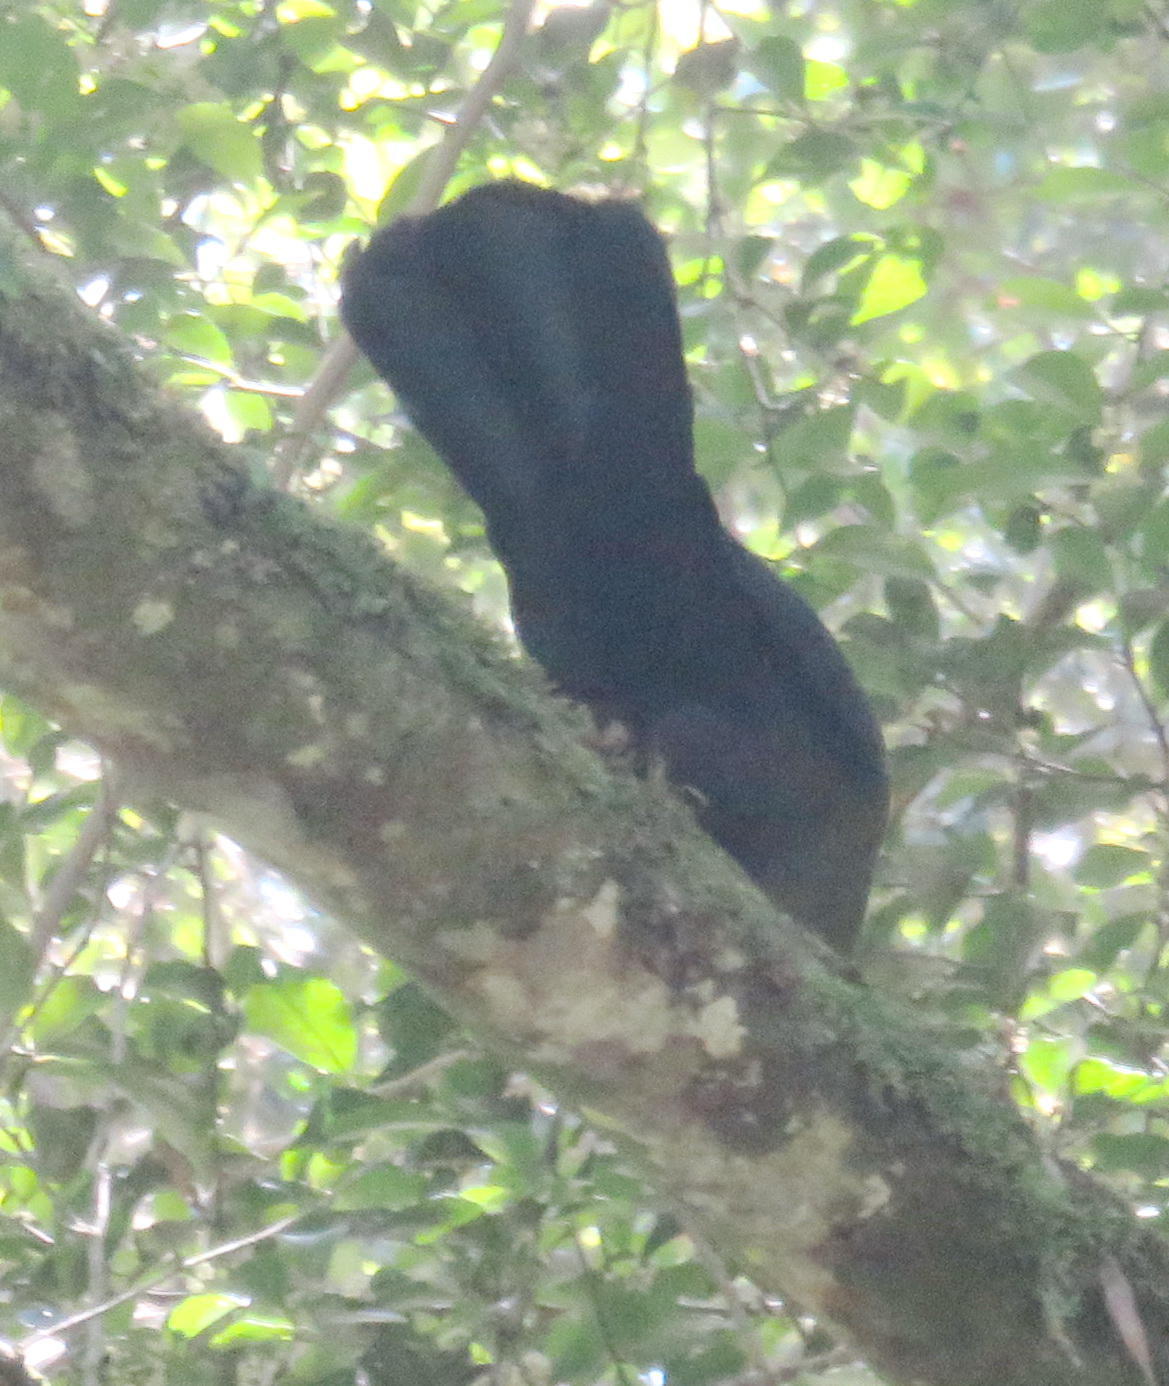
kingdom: Animalia
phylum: Chordata
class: Aves
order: Musophagiformes
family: Musophagidae
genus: Tauraco
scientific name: Tauraco corythaix
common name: Knysna turaco
